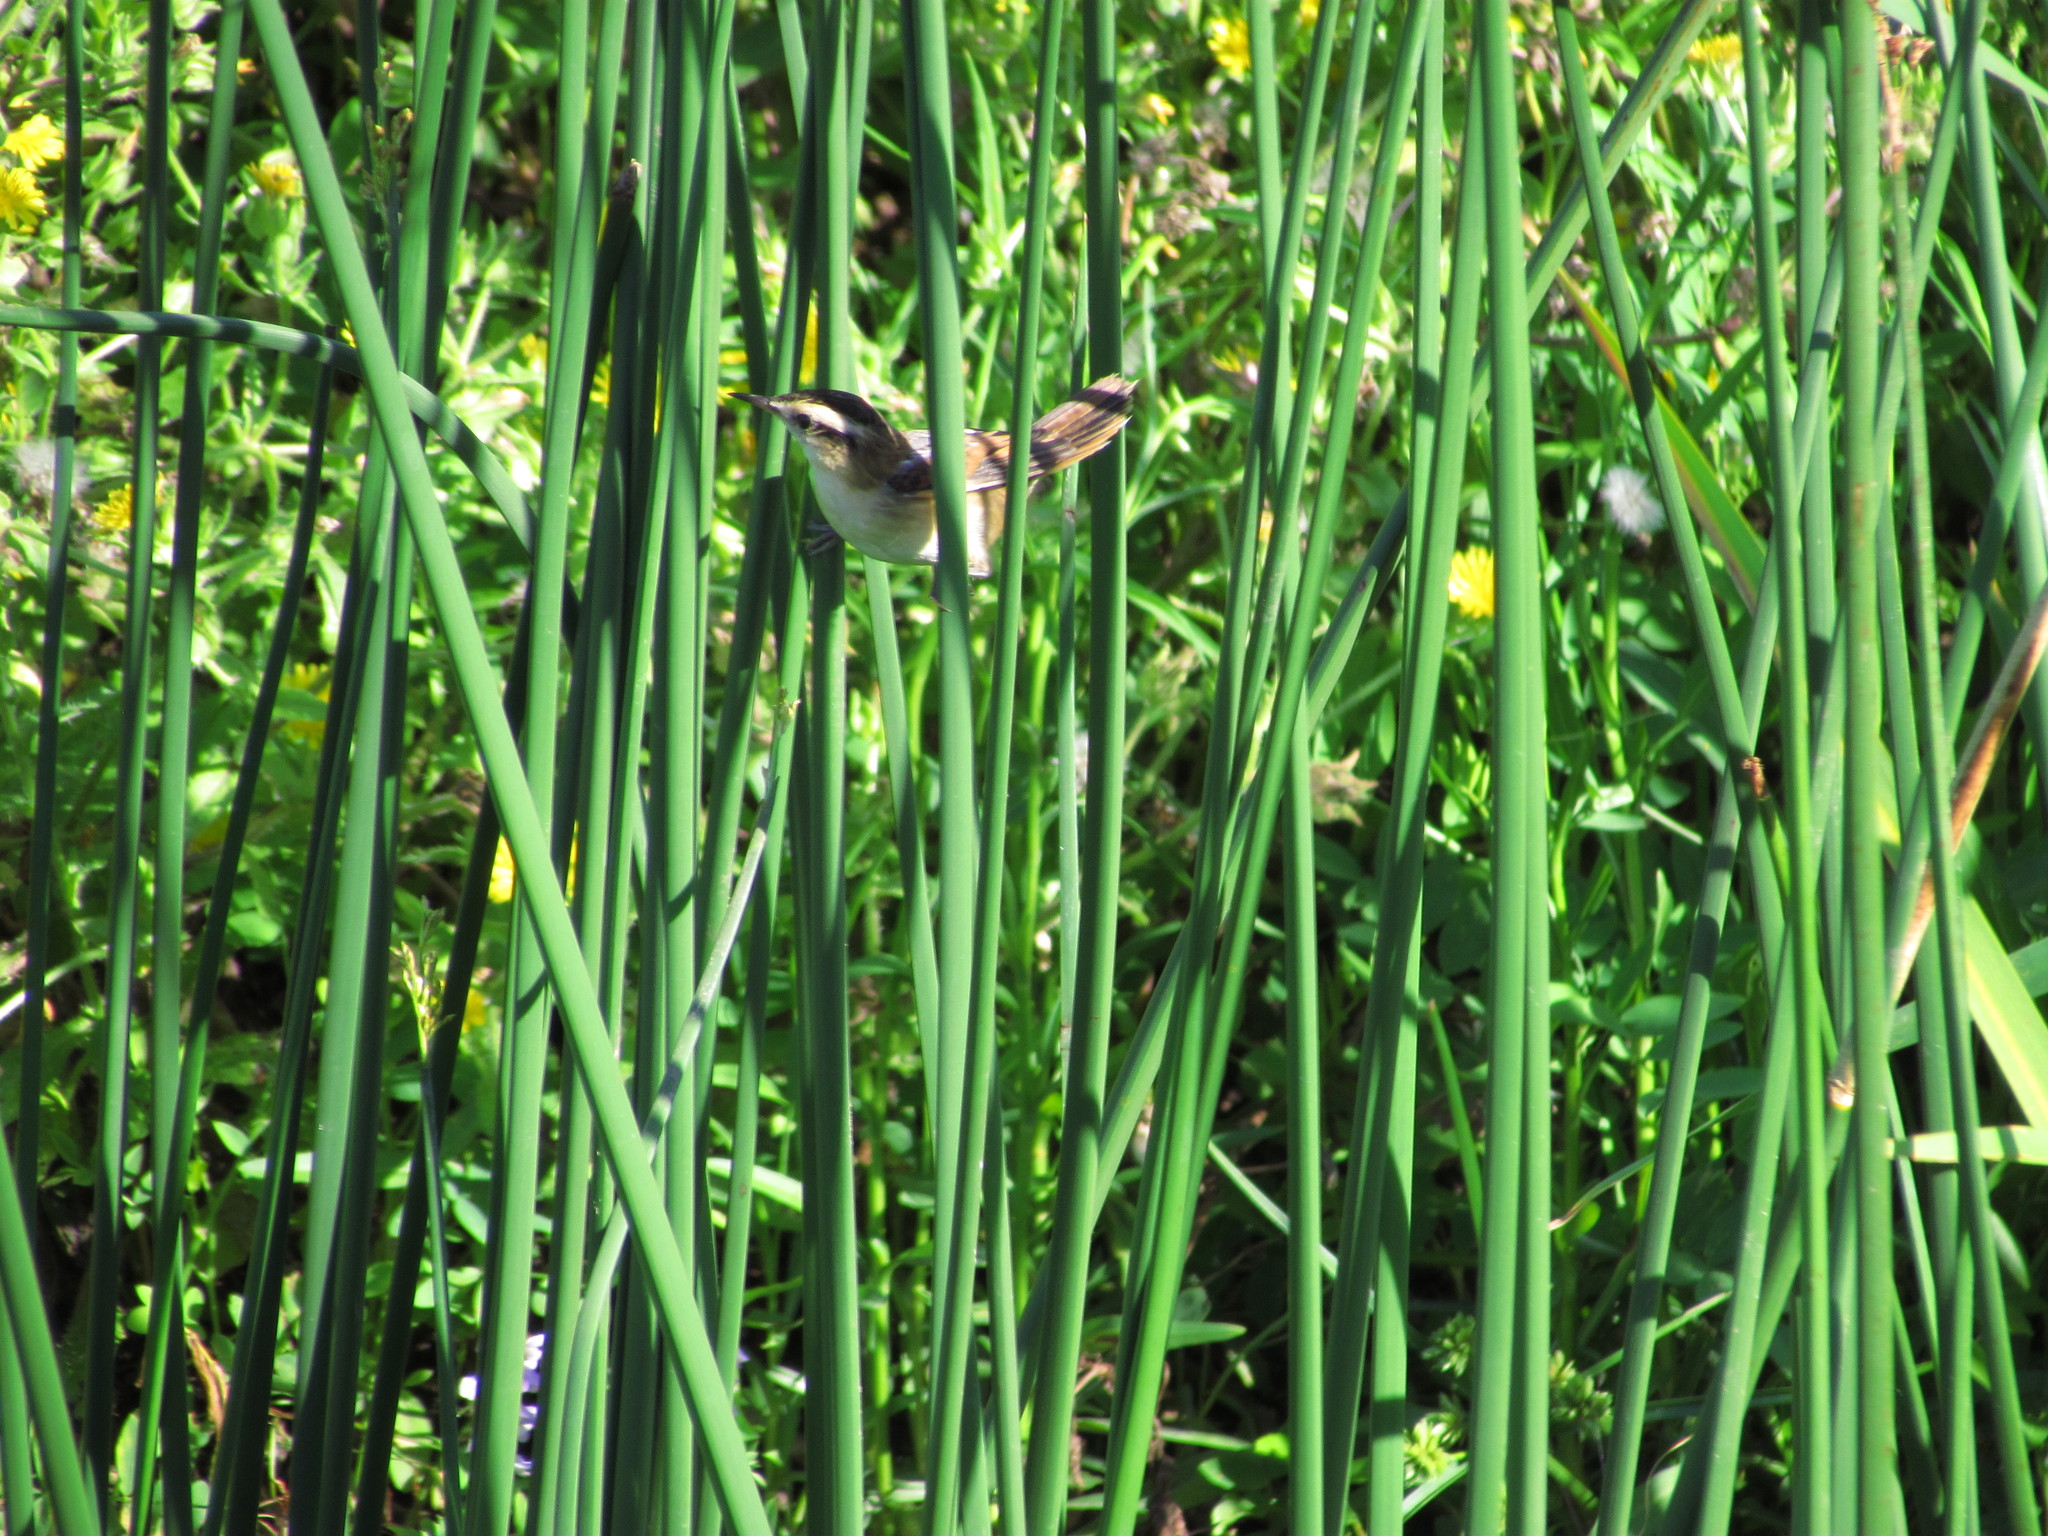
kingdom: Animalia
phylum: Chordata
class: Aves
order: Passeriformes
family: Furnariidae
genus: Phleocryptes
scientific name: Phleocryptes melanops
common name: Wren-like rushbird
